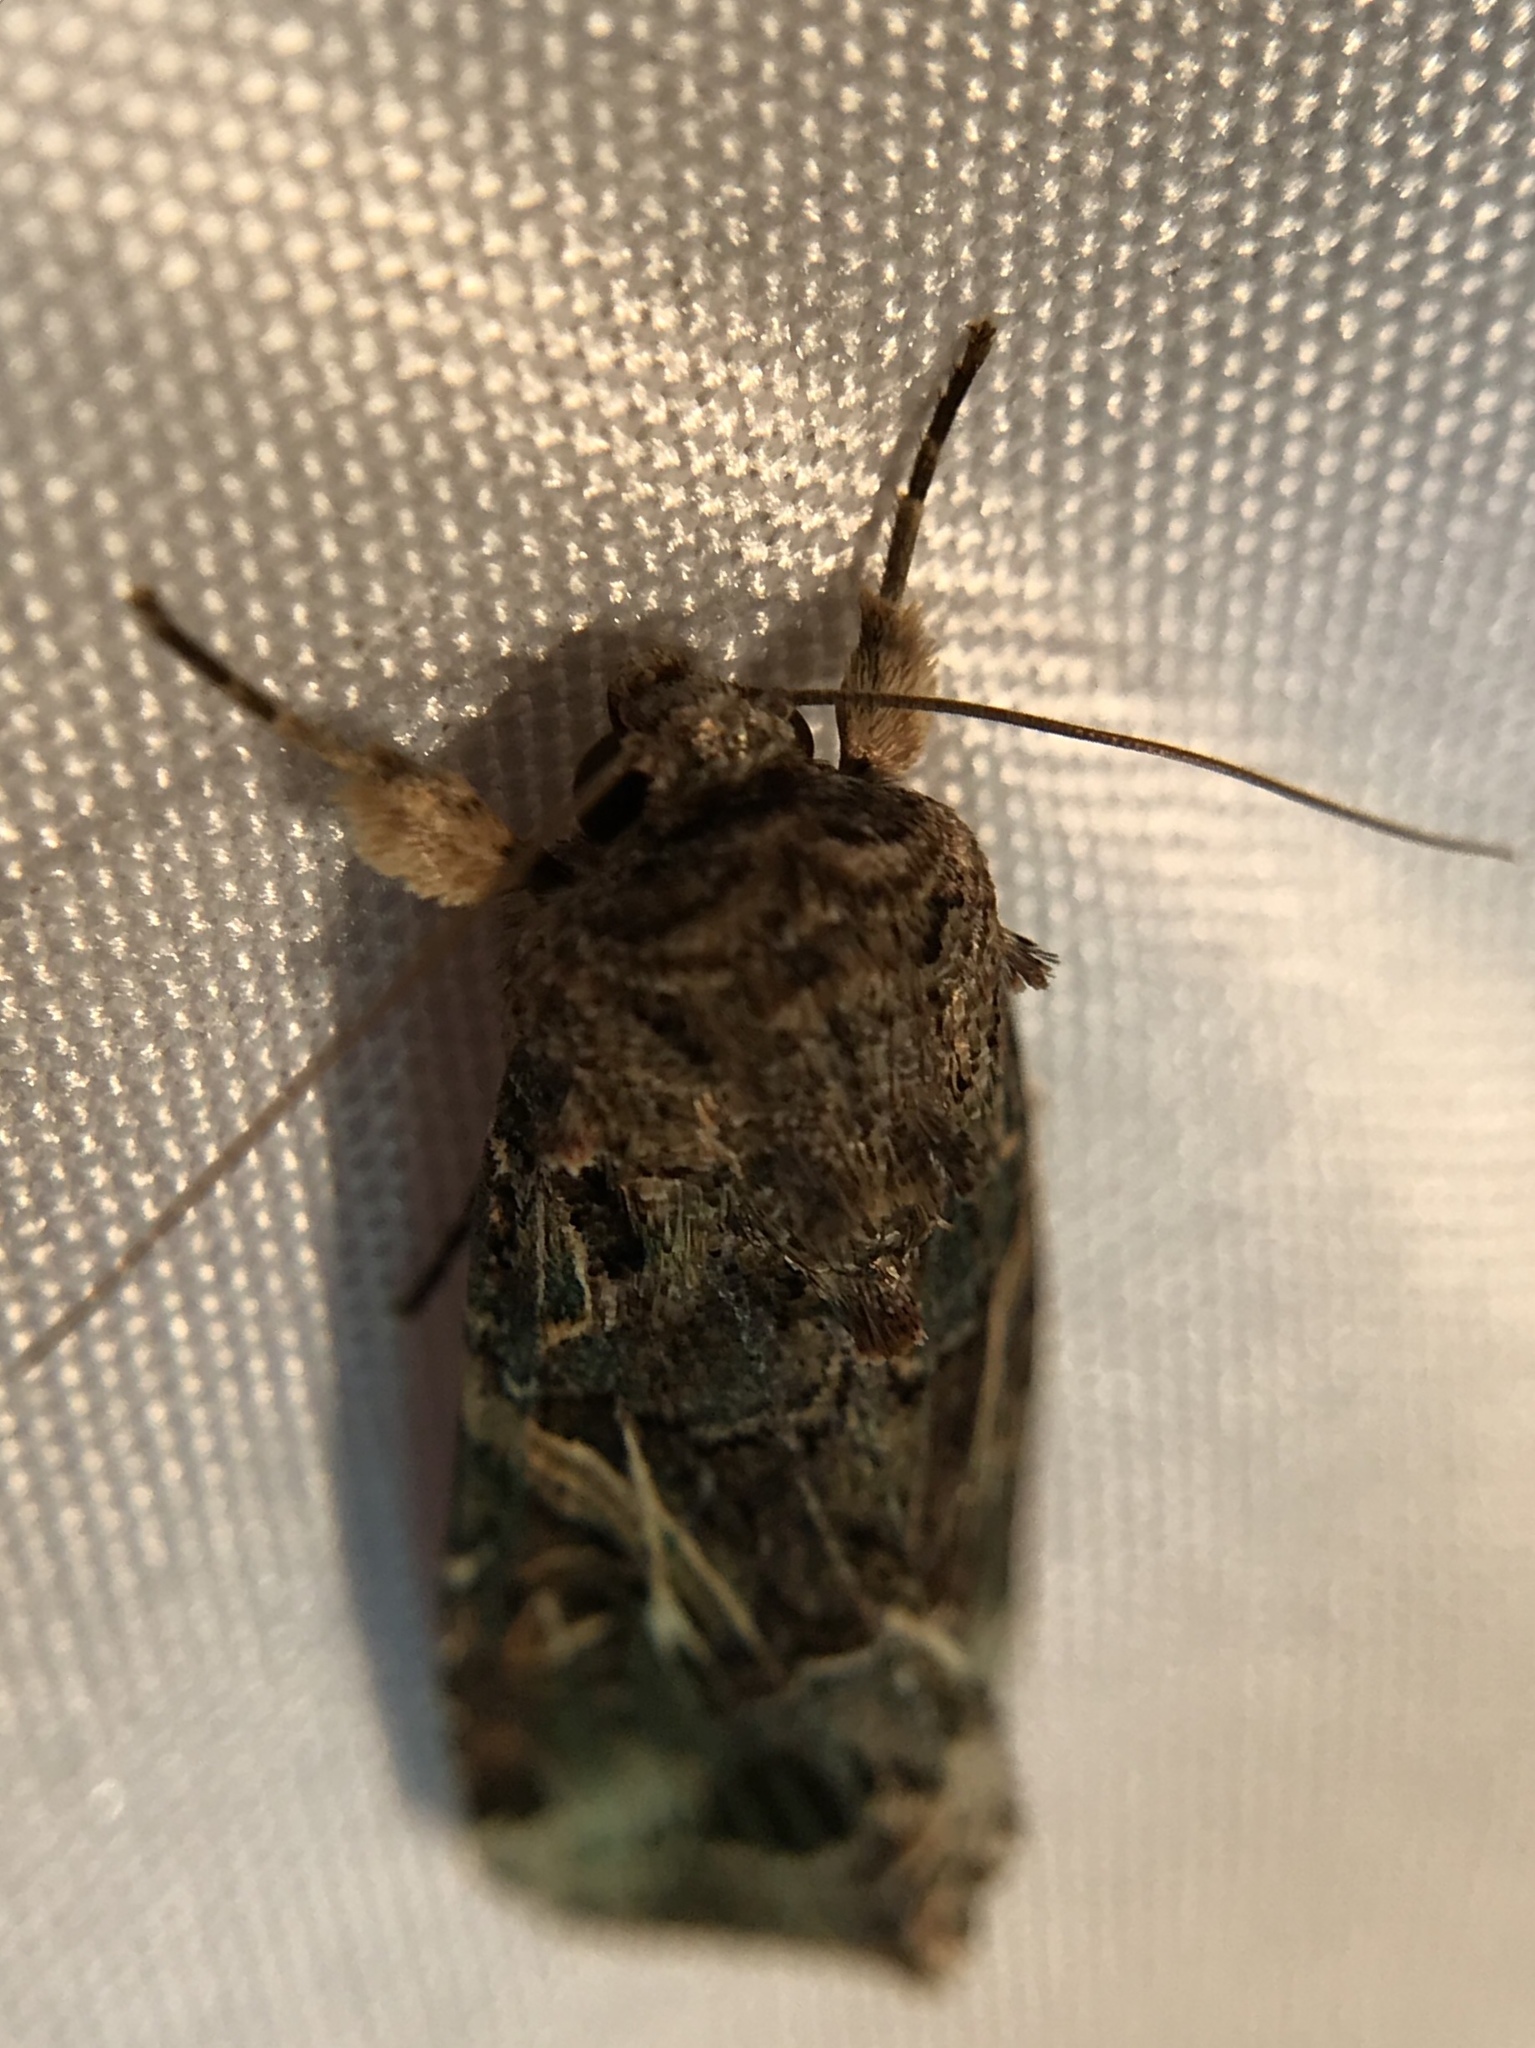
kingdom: Animalia
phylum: Arthropoda
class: Insecta
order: Lepidoptera
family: Noctuidae
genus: Spodoptera
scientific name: Spodoptera ornithogalli
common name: Yellow-striped armyworm
